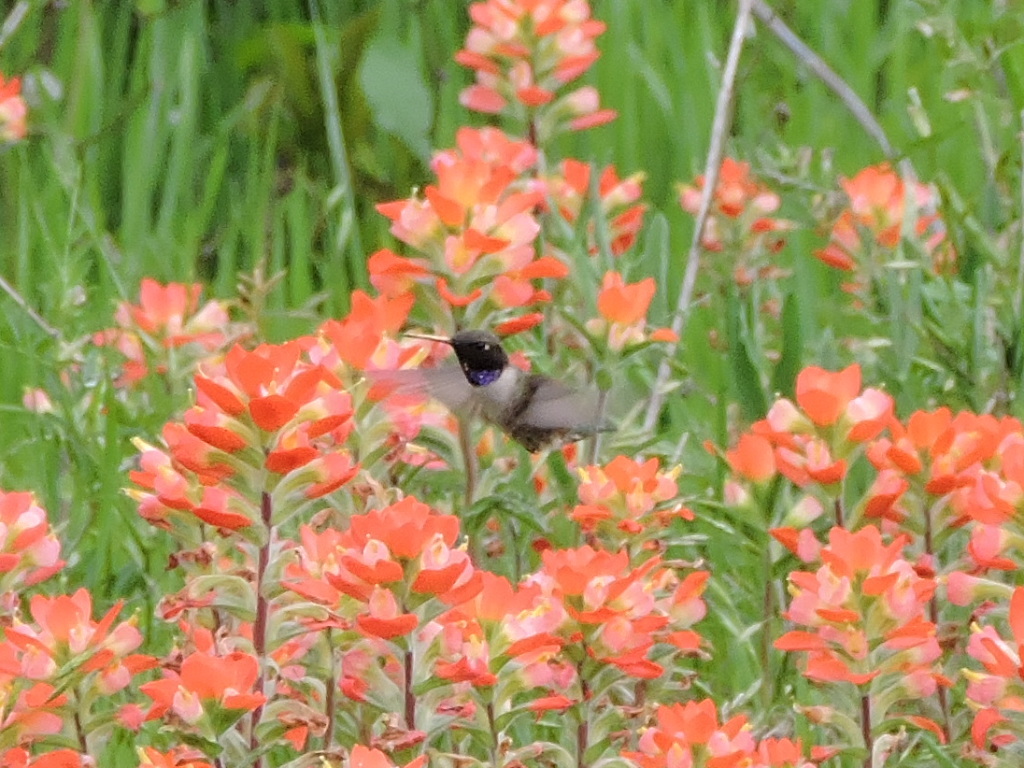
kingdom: Animalia
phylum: Chordata
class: Aves
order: Apodiformes
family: Trochilidae
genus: Archilochus
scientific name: Archilochus alexandri
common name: Black-chinned hummingbird
